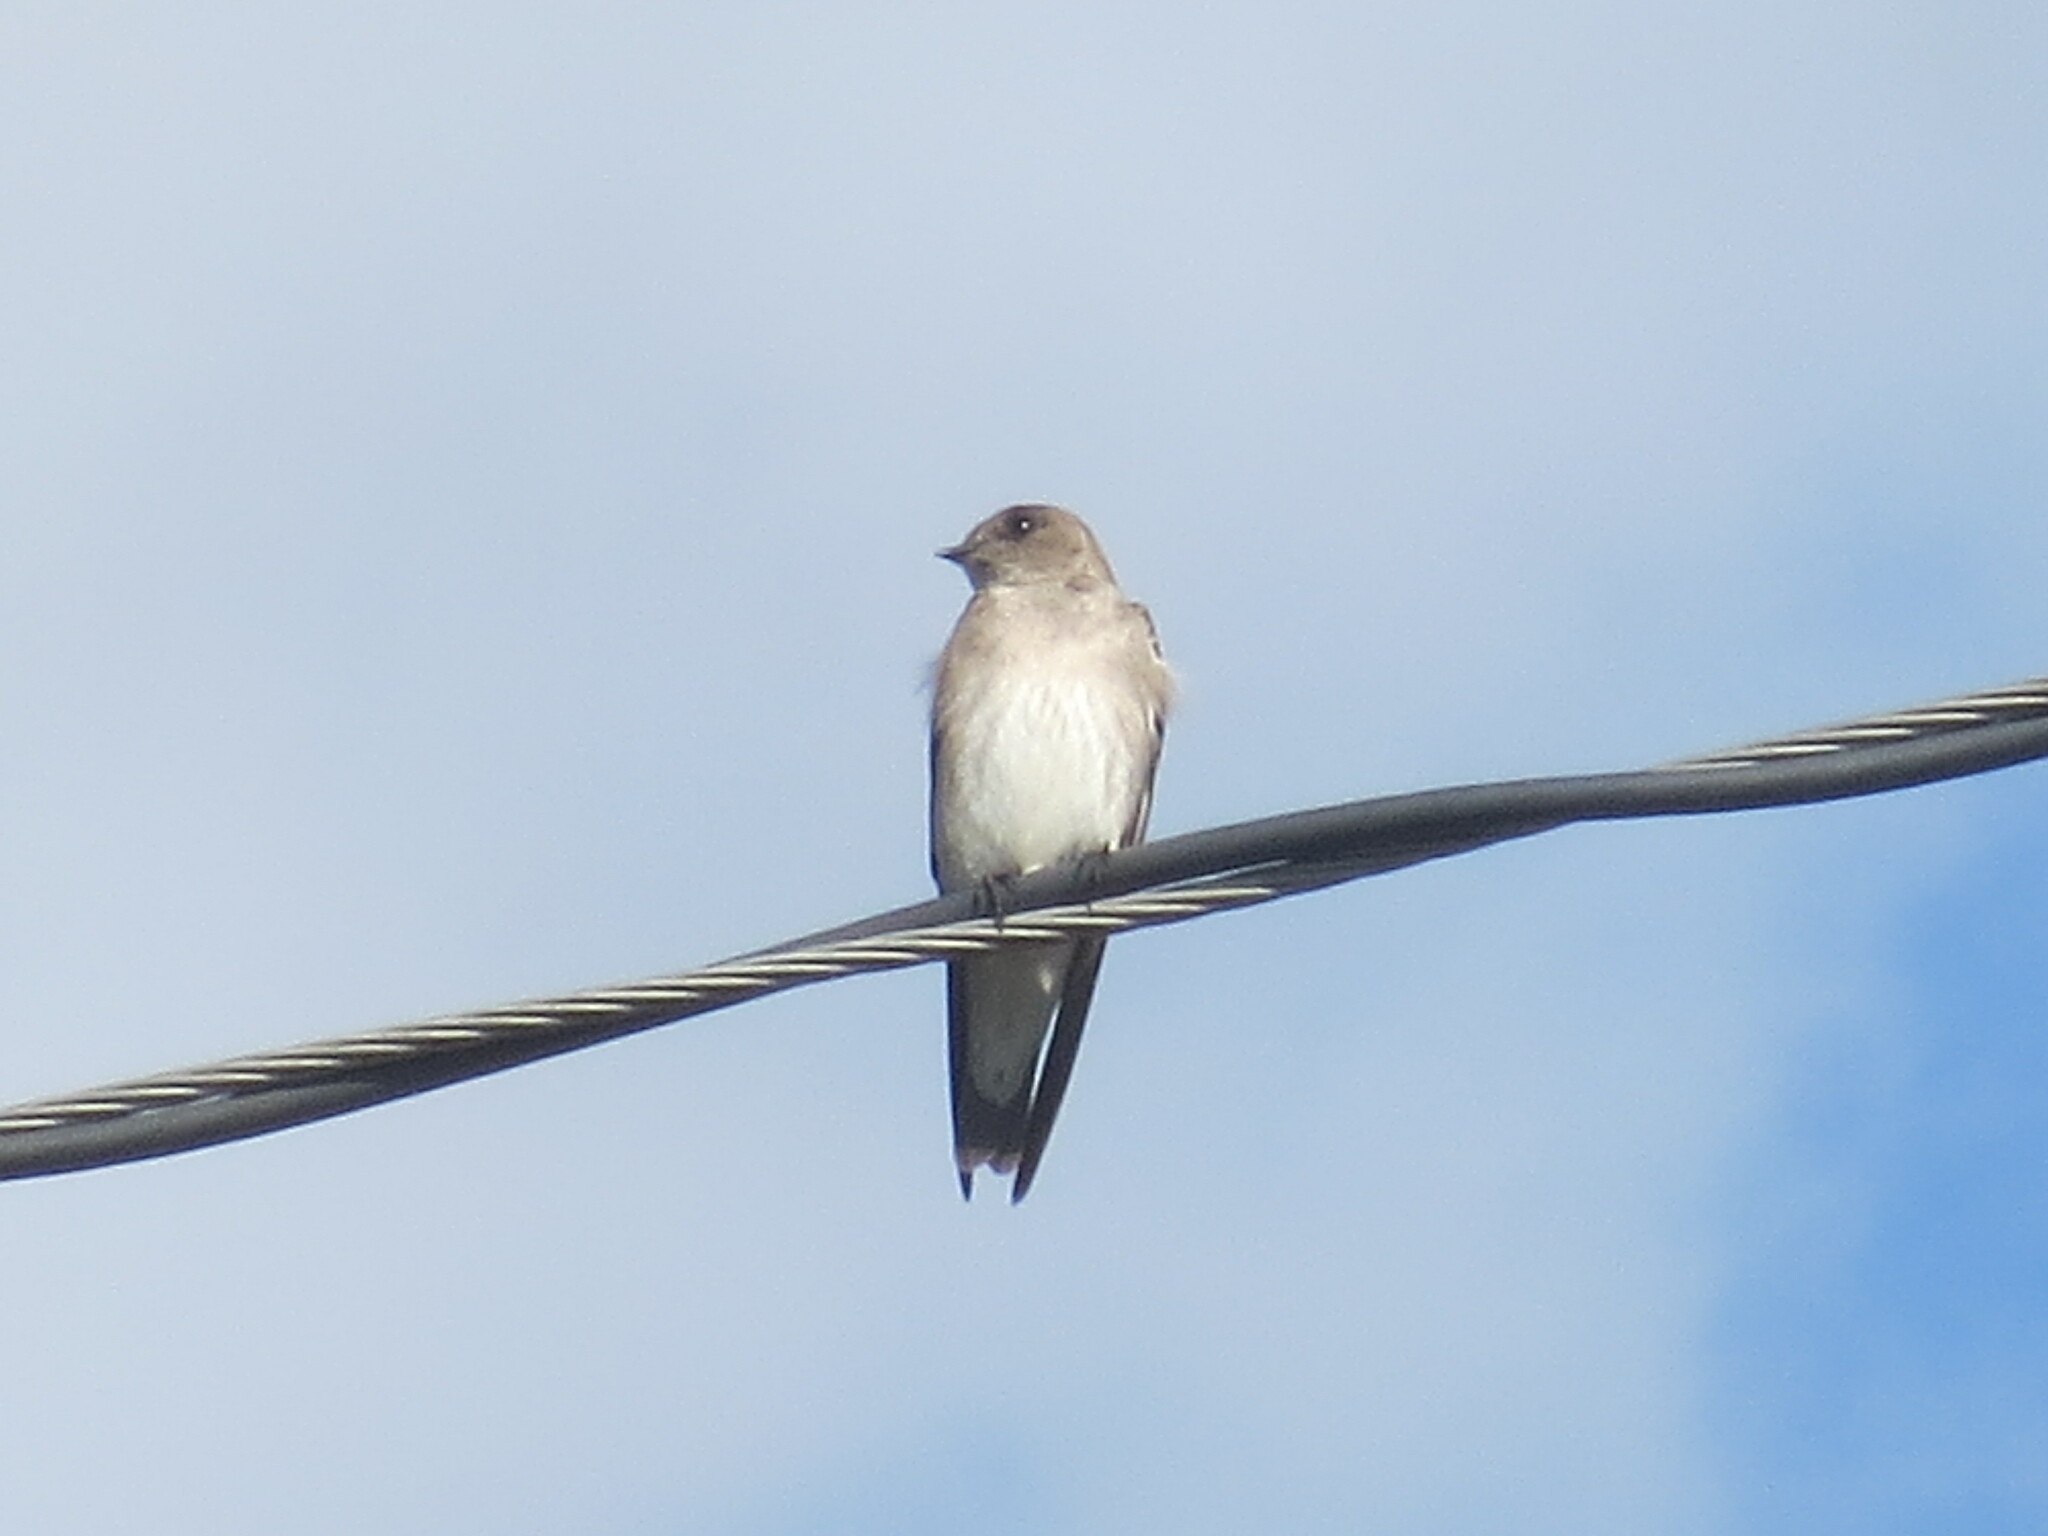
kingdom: Animalia
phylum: Chordata
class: Aves
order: Passeriformes
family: Hirundinidae
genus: Stelgidopteryx
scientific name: Stelgidopteryx serripennis
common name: Northern rough-winged swallow
